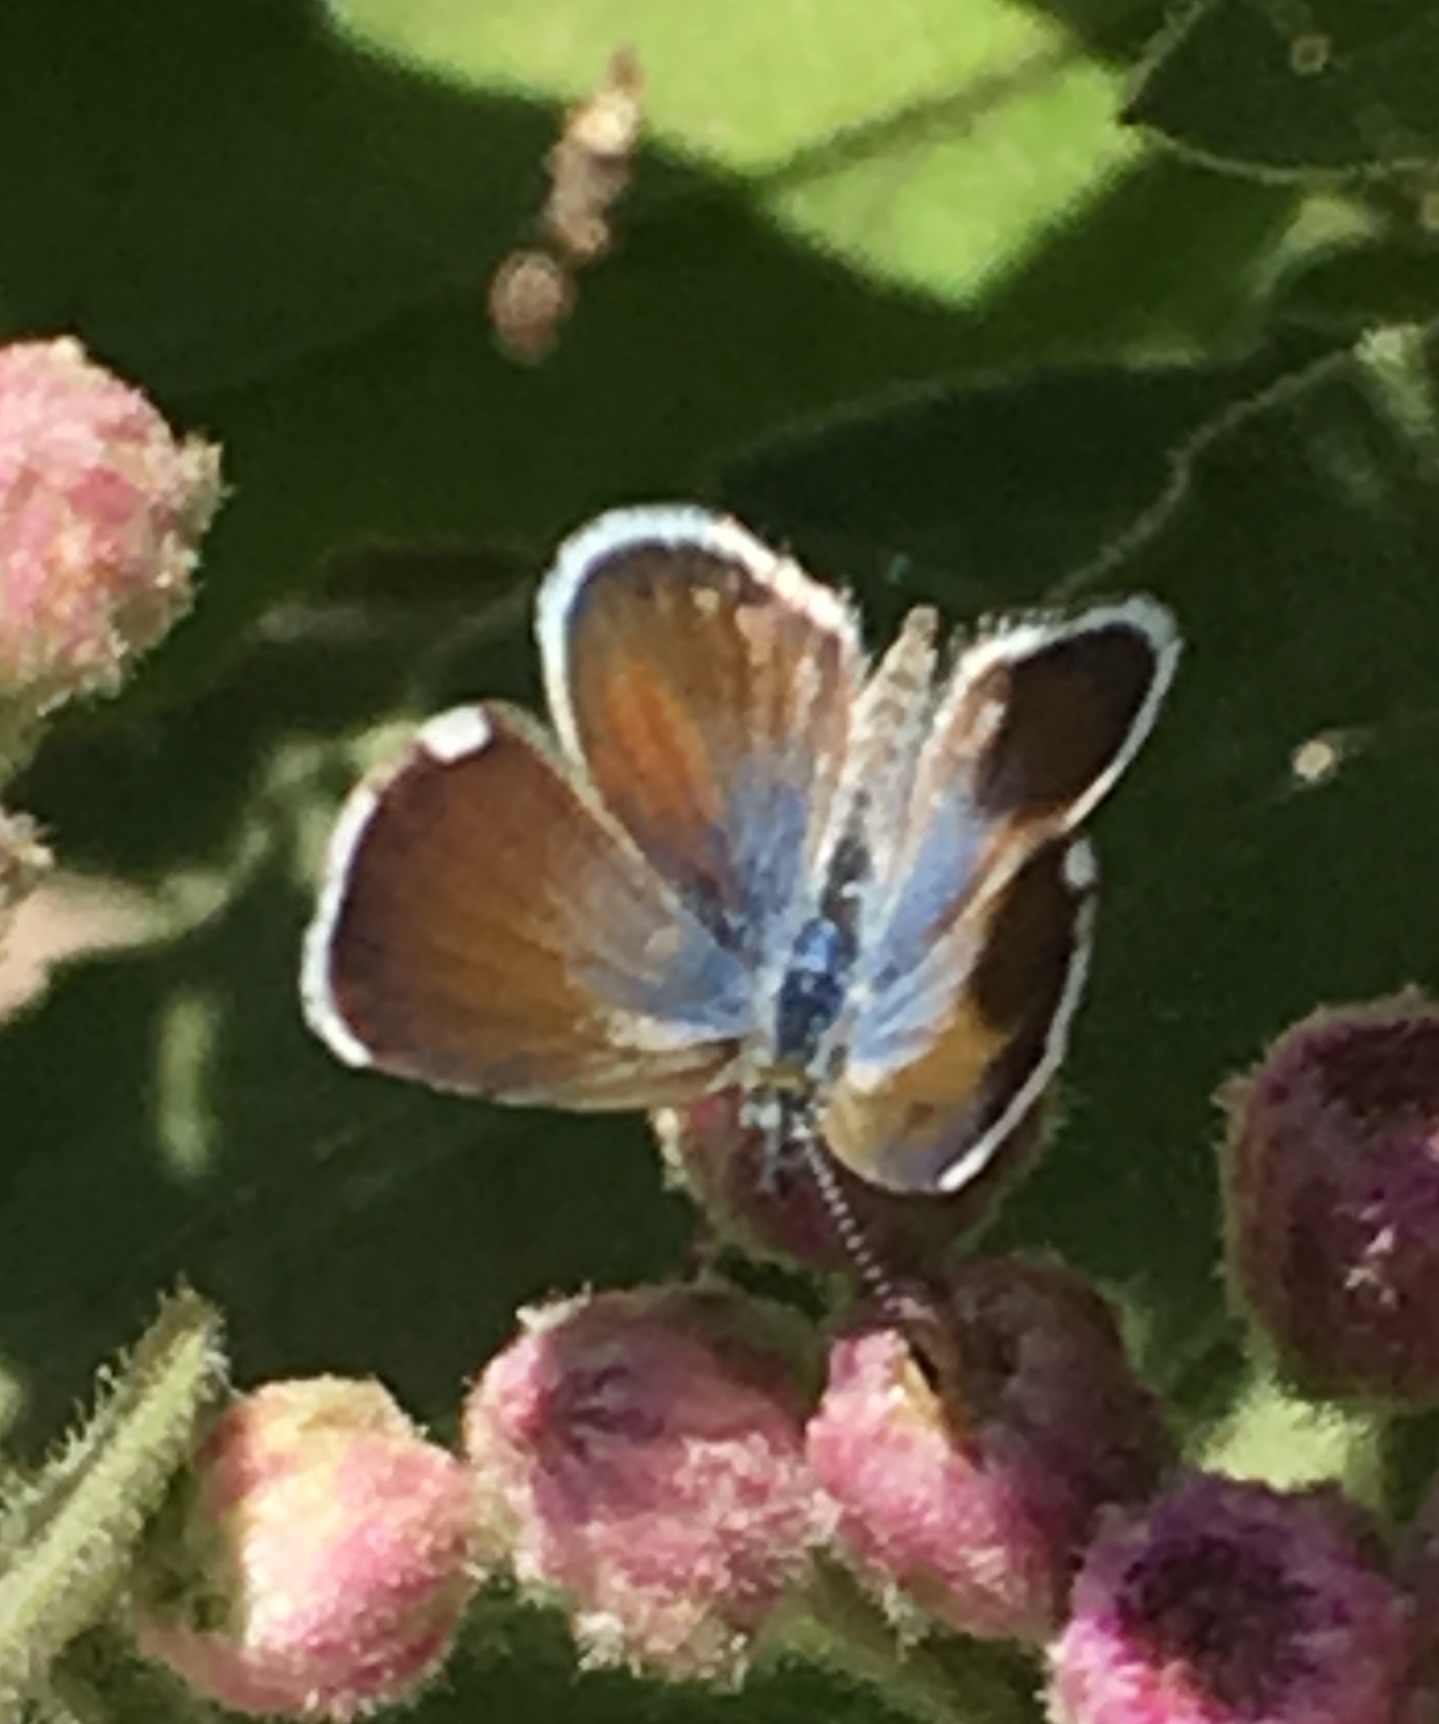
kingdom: Animalia
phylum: Arthropoda
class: Insecta
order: Lepidoptera
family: Lycaenidae
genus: Brephidium
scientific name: Brephidium exilis
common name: Pygmy blue
